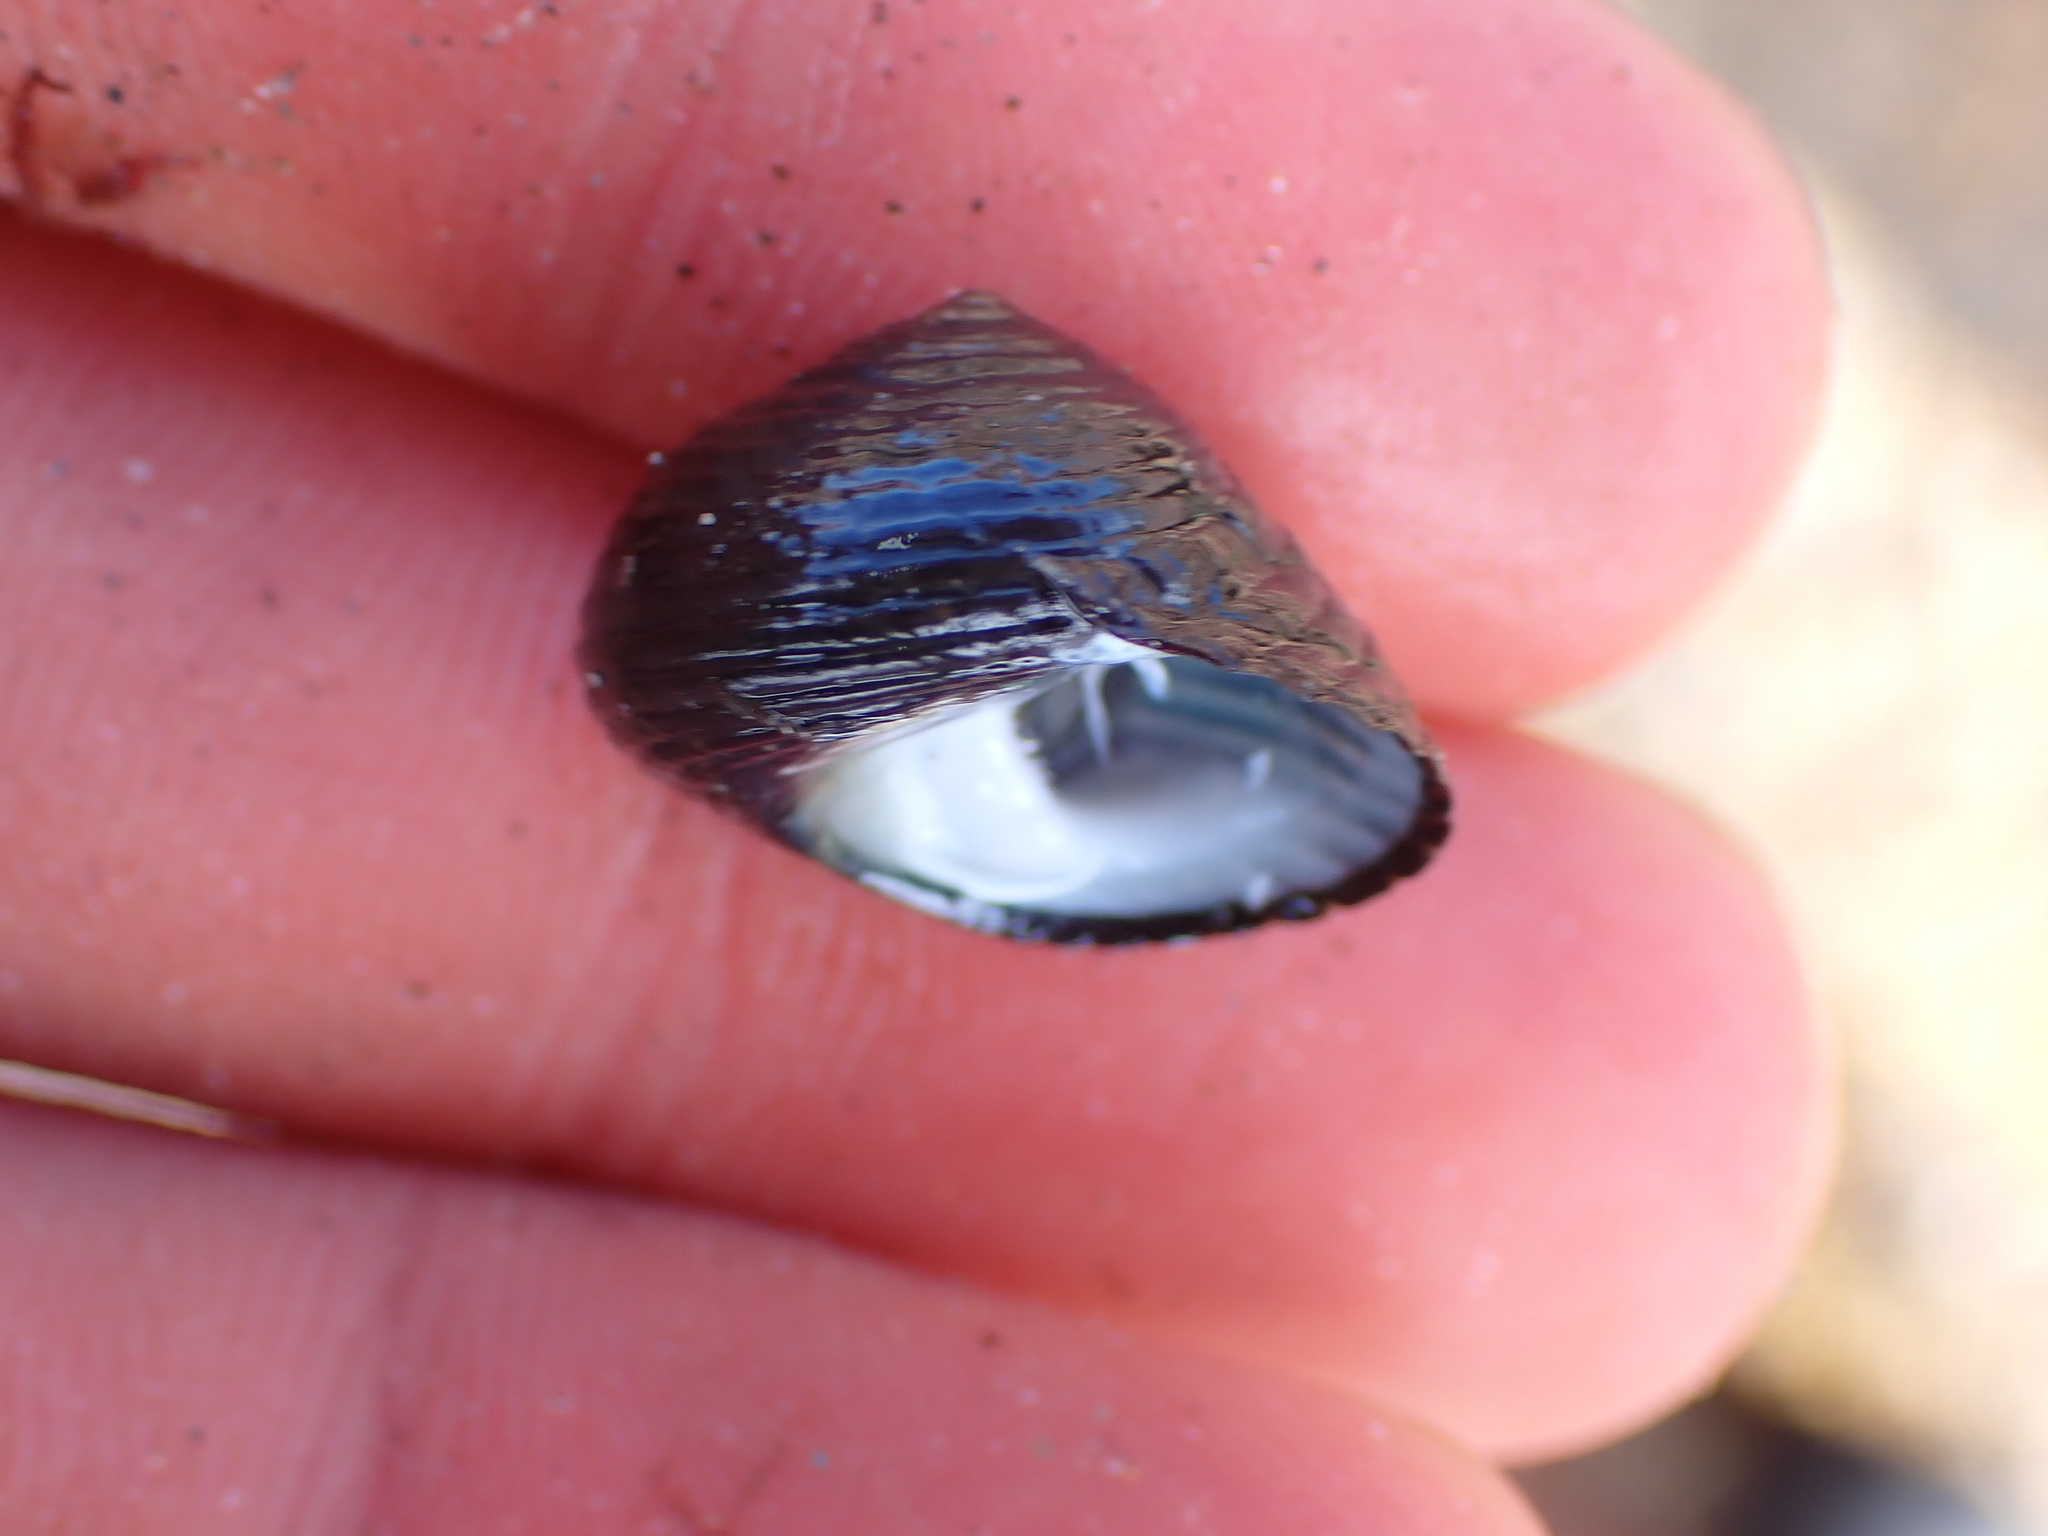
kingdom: Animalia
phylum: Mollusca
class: Gastropoda
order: Trochida
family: Trochidae
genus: Diloma
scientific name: Diloma zelandicum
